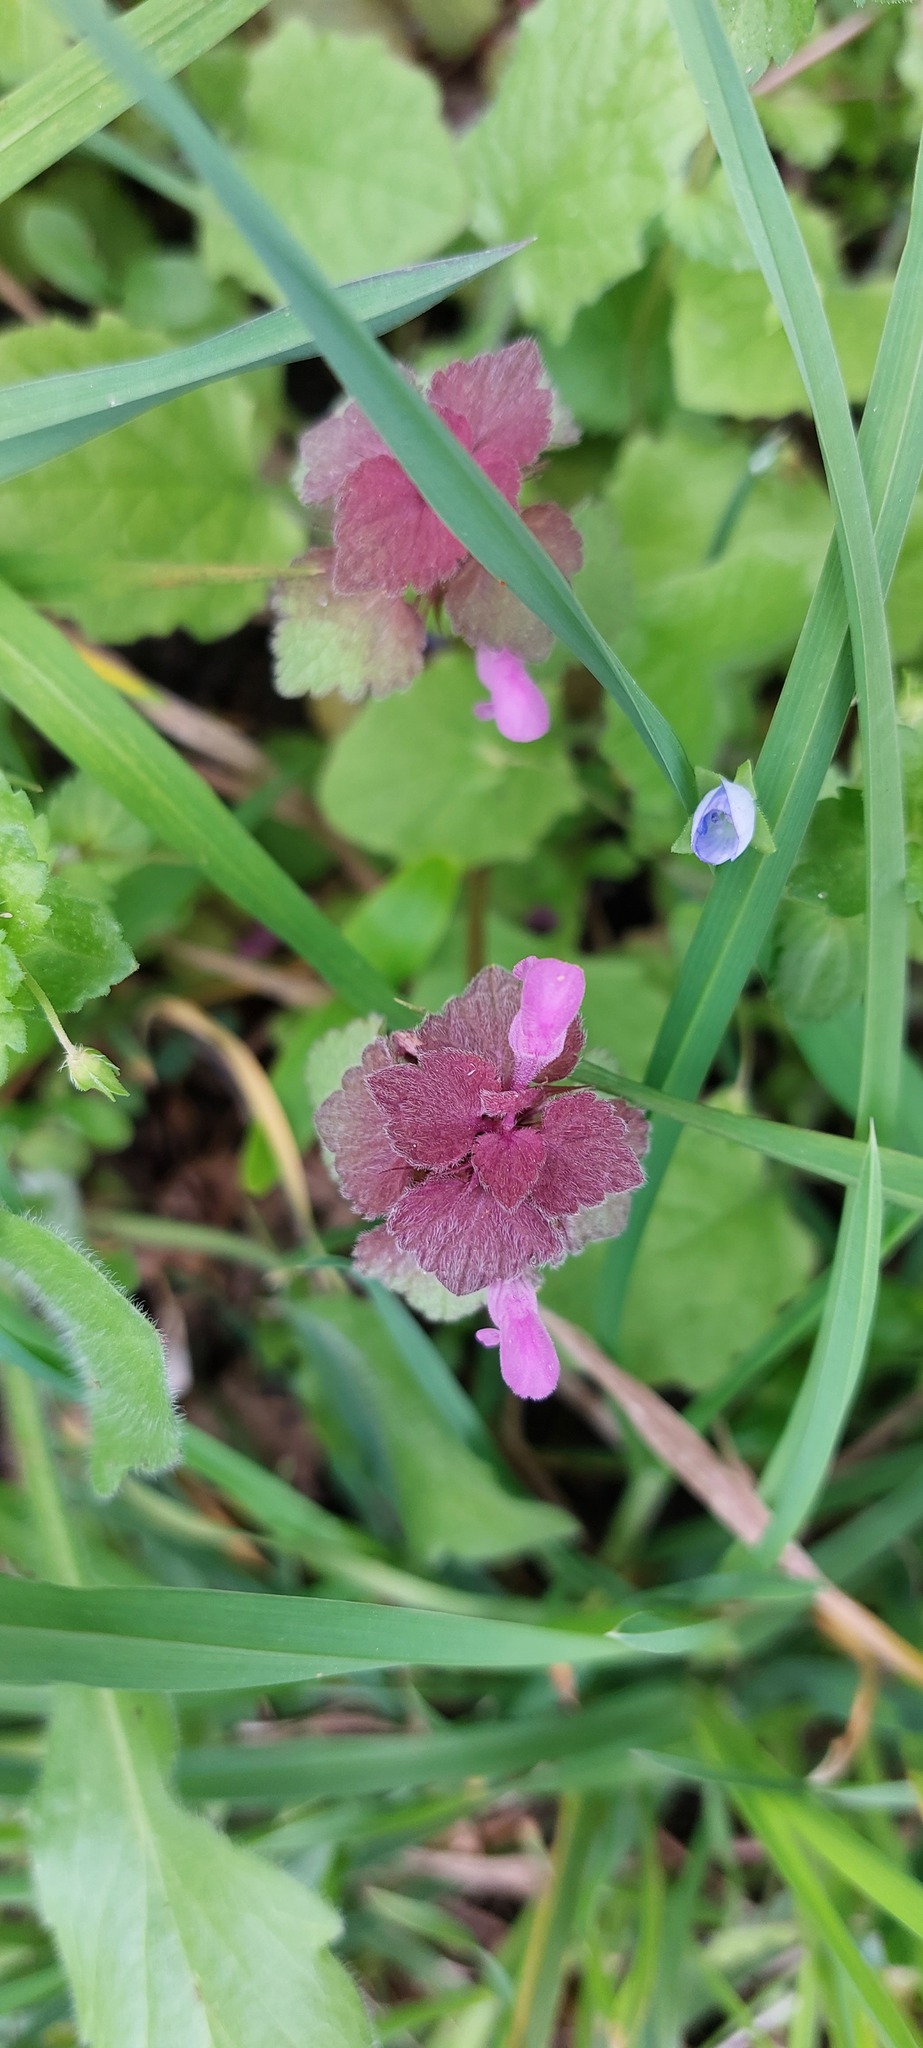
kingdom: Plantae
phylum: Tracheophyta
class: Magnoliopsida
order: Lamiales
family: Lamiaceae
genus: Lamium
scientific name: Lamium purpureum
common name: Red dead-nettle
